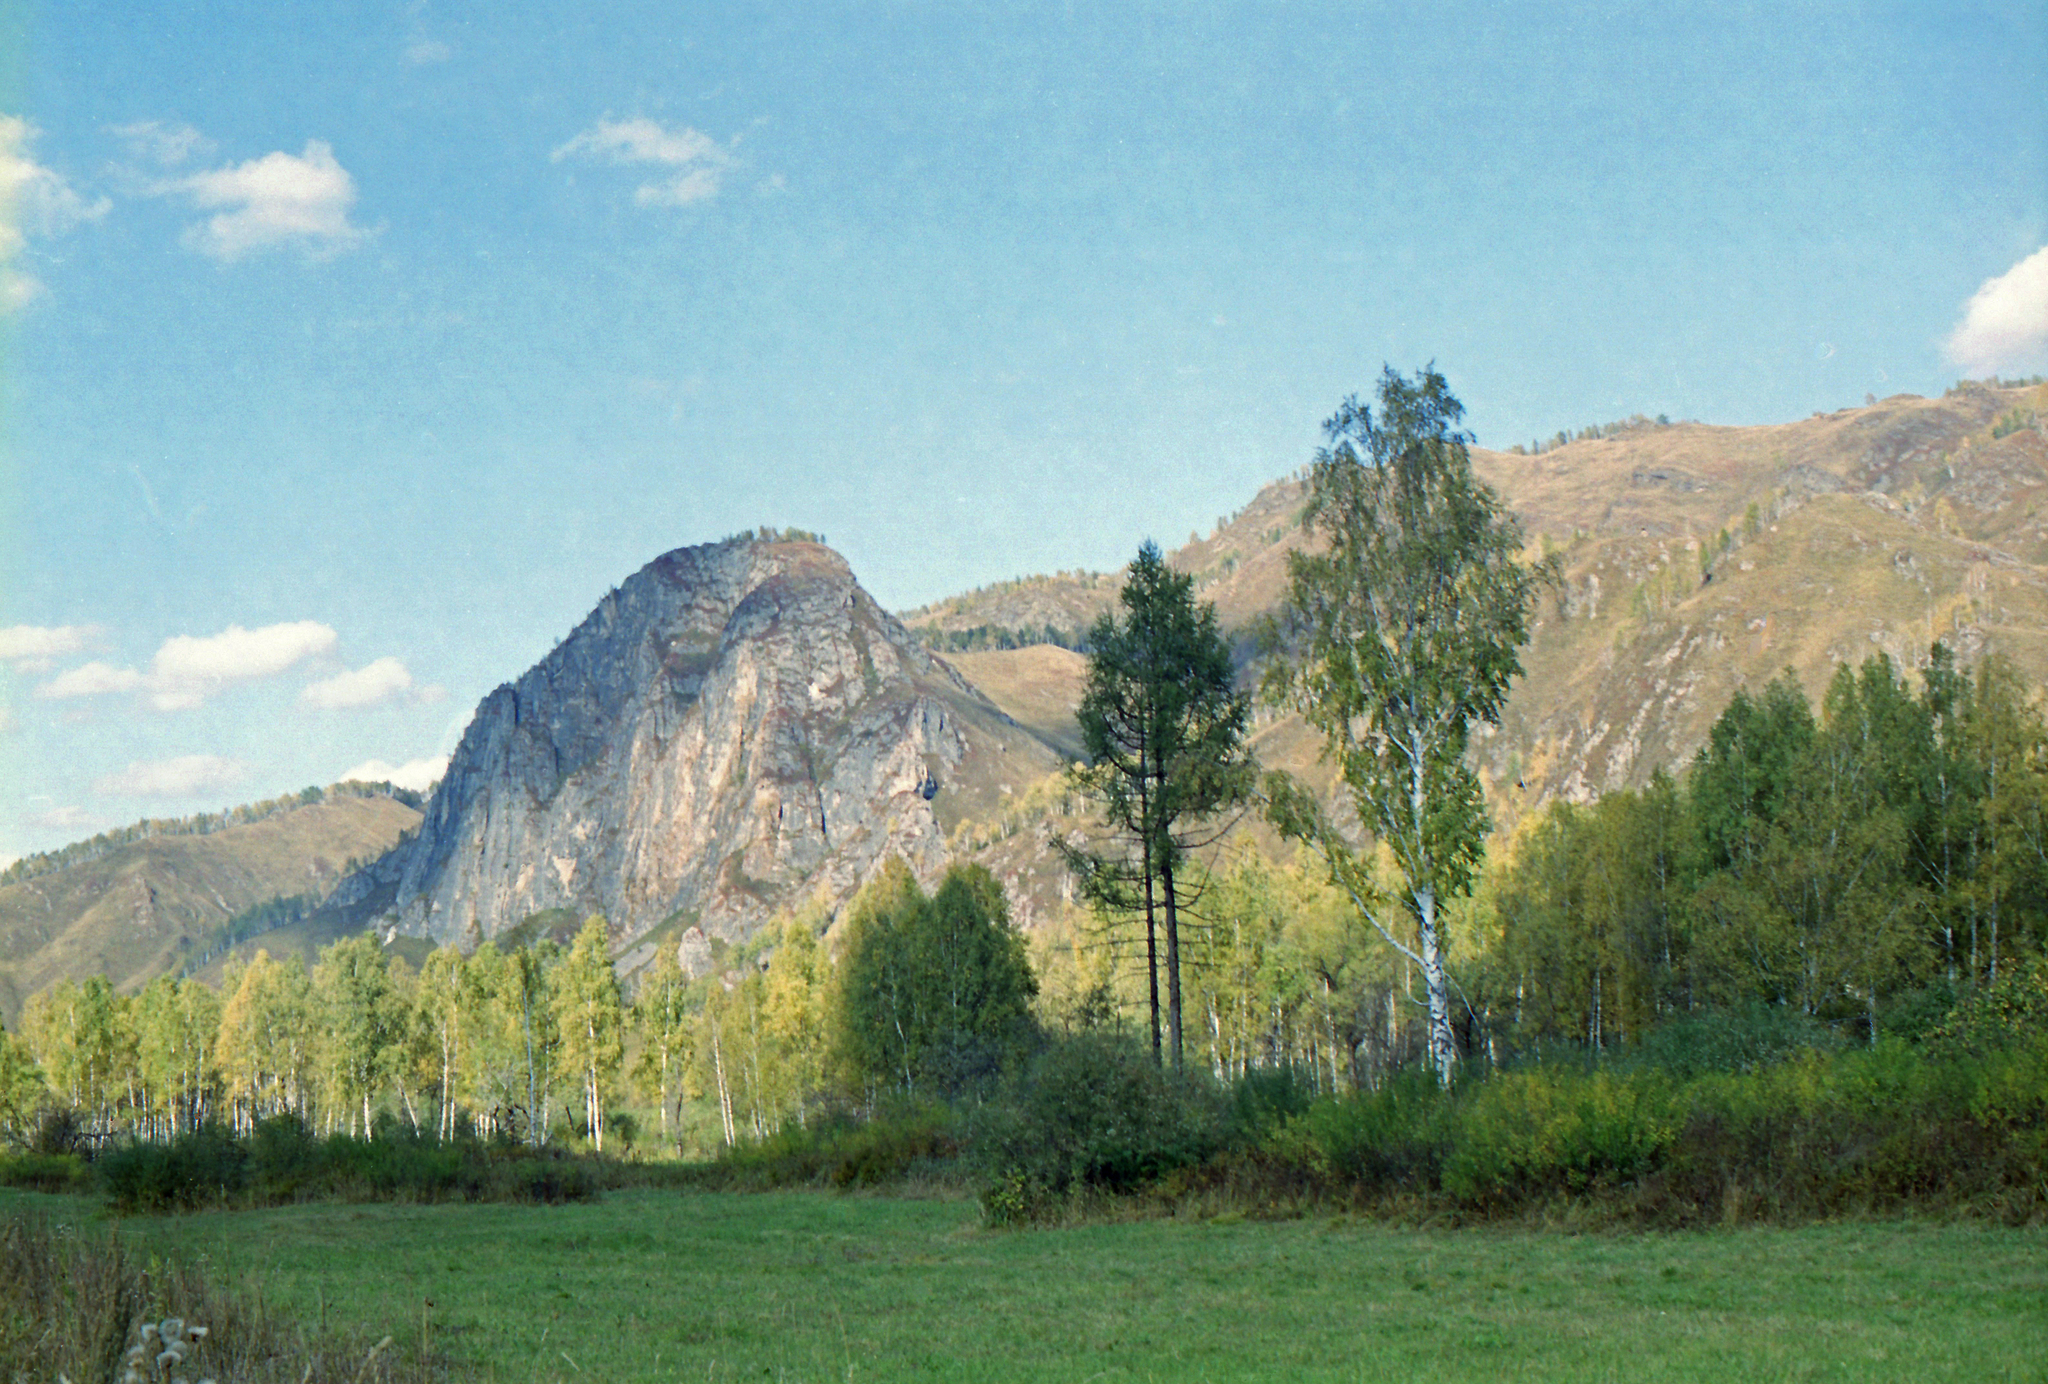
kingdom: Plantae
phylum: Tracheophyta
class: Pinopsida
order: Pinales
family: Pinaceae
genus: Larix
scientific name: Larix sibirica
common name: Siberian larch
